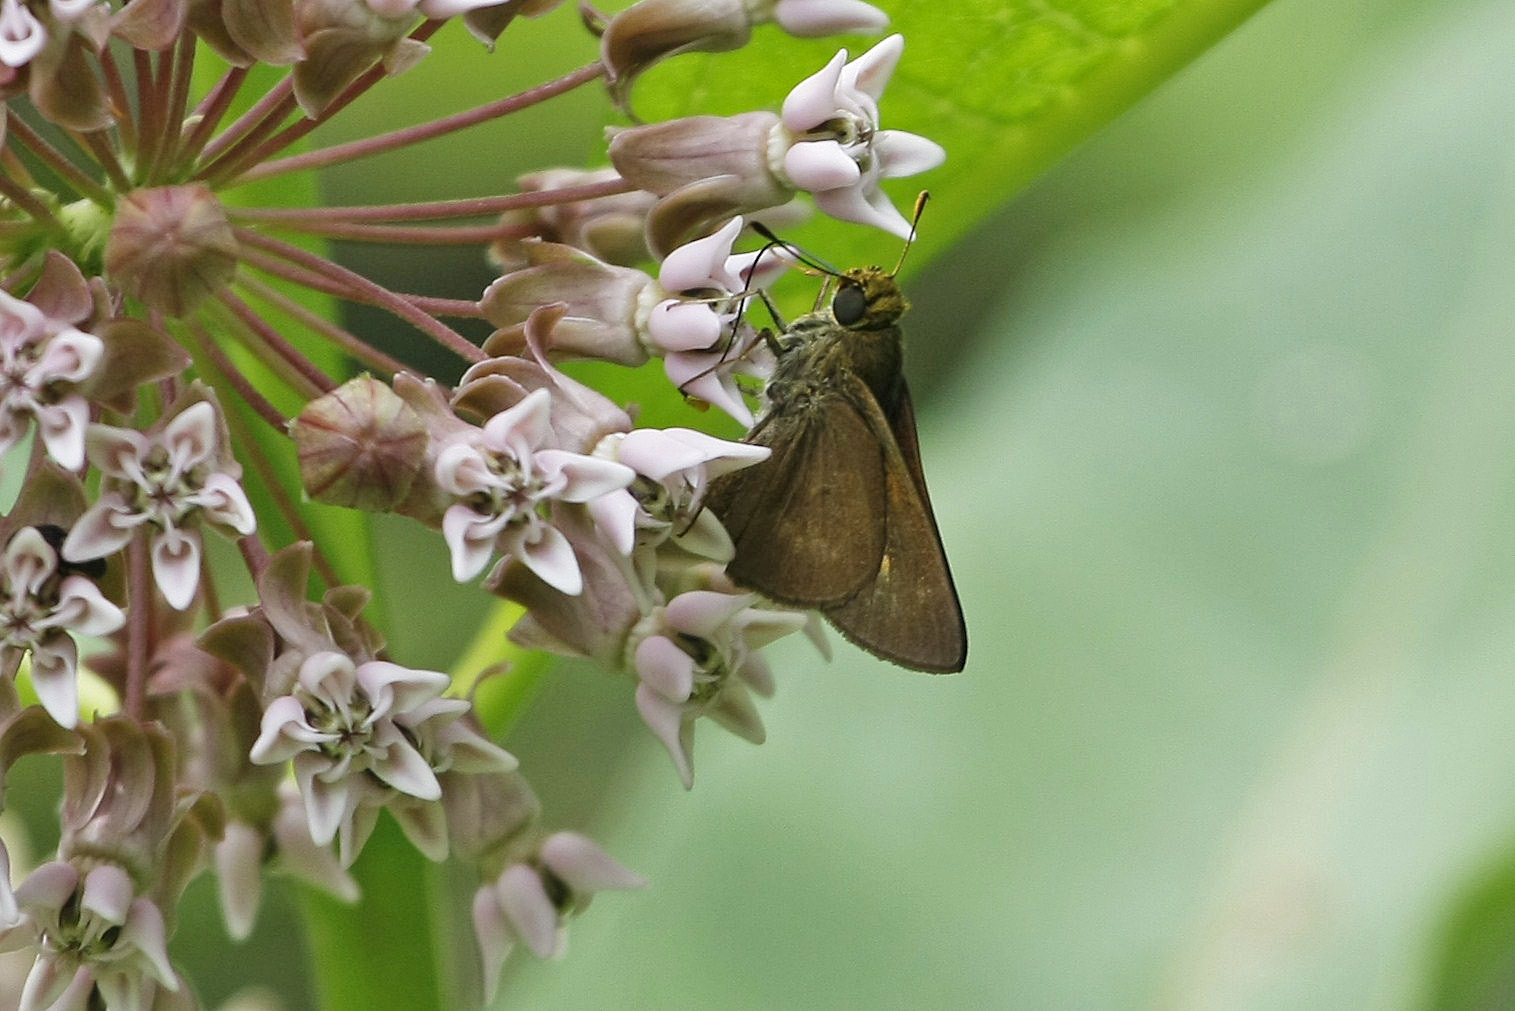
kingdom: Animalia
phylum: Arthropoda
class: Insecta
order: Lepidoptera
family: Hesperiidae
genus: Polites
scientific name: Polites egeremet
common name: Northern broken-dash
